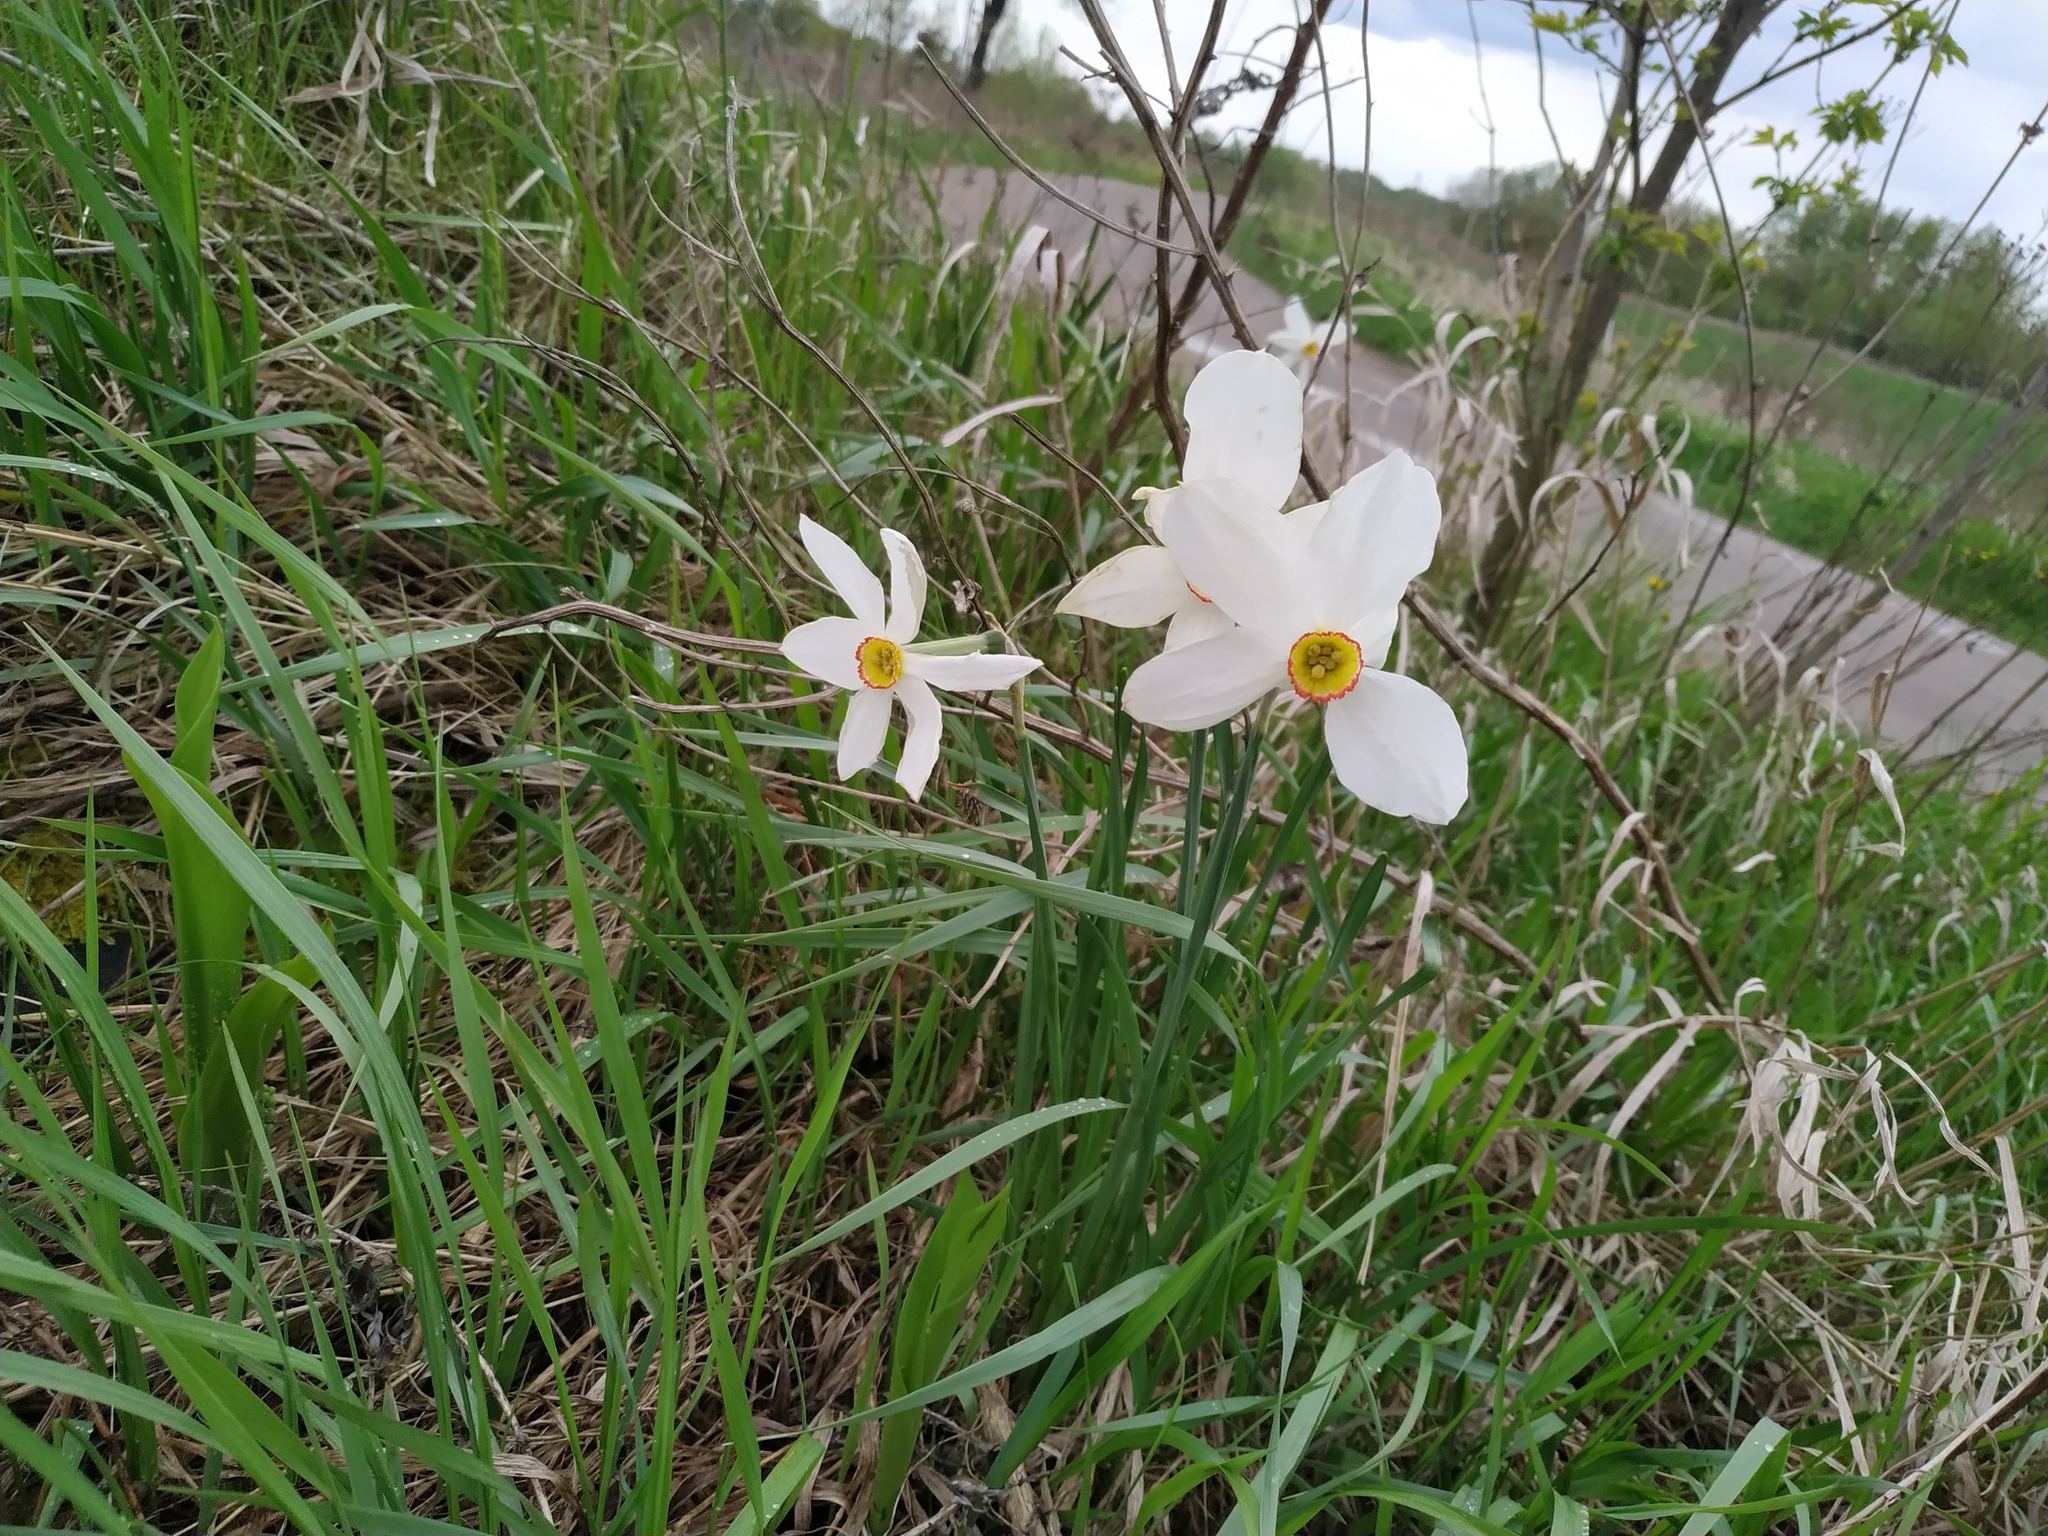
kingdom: Plantae
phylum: Tracheophyta
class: Liliopsida
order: Asparagales
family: Amaryllidaceae
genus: Narcissus
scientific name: Narcissus poeticus
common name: Pheasant's-eye daffodil
